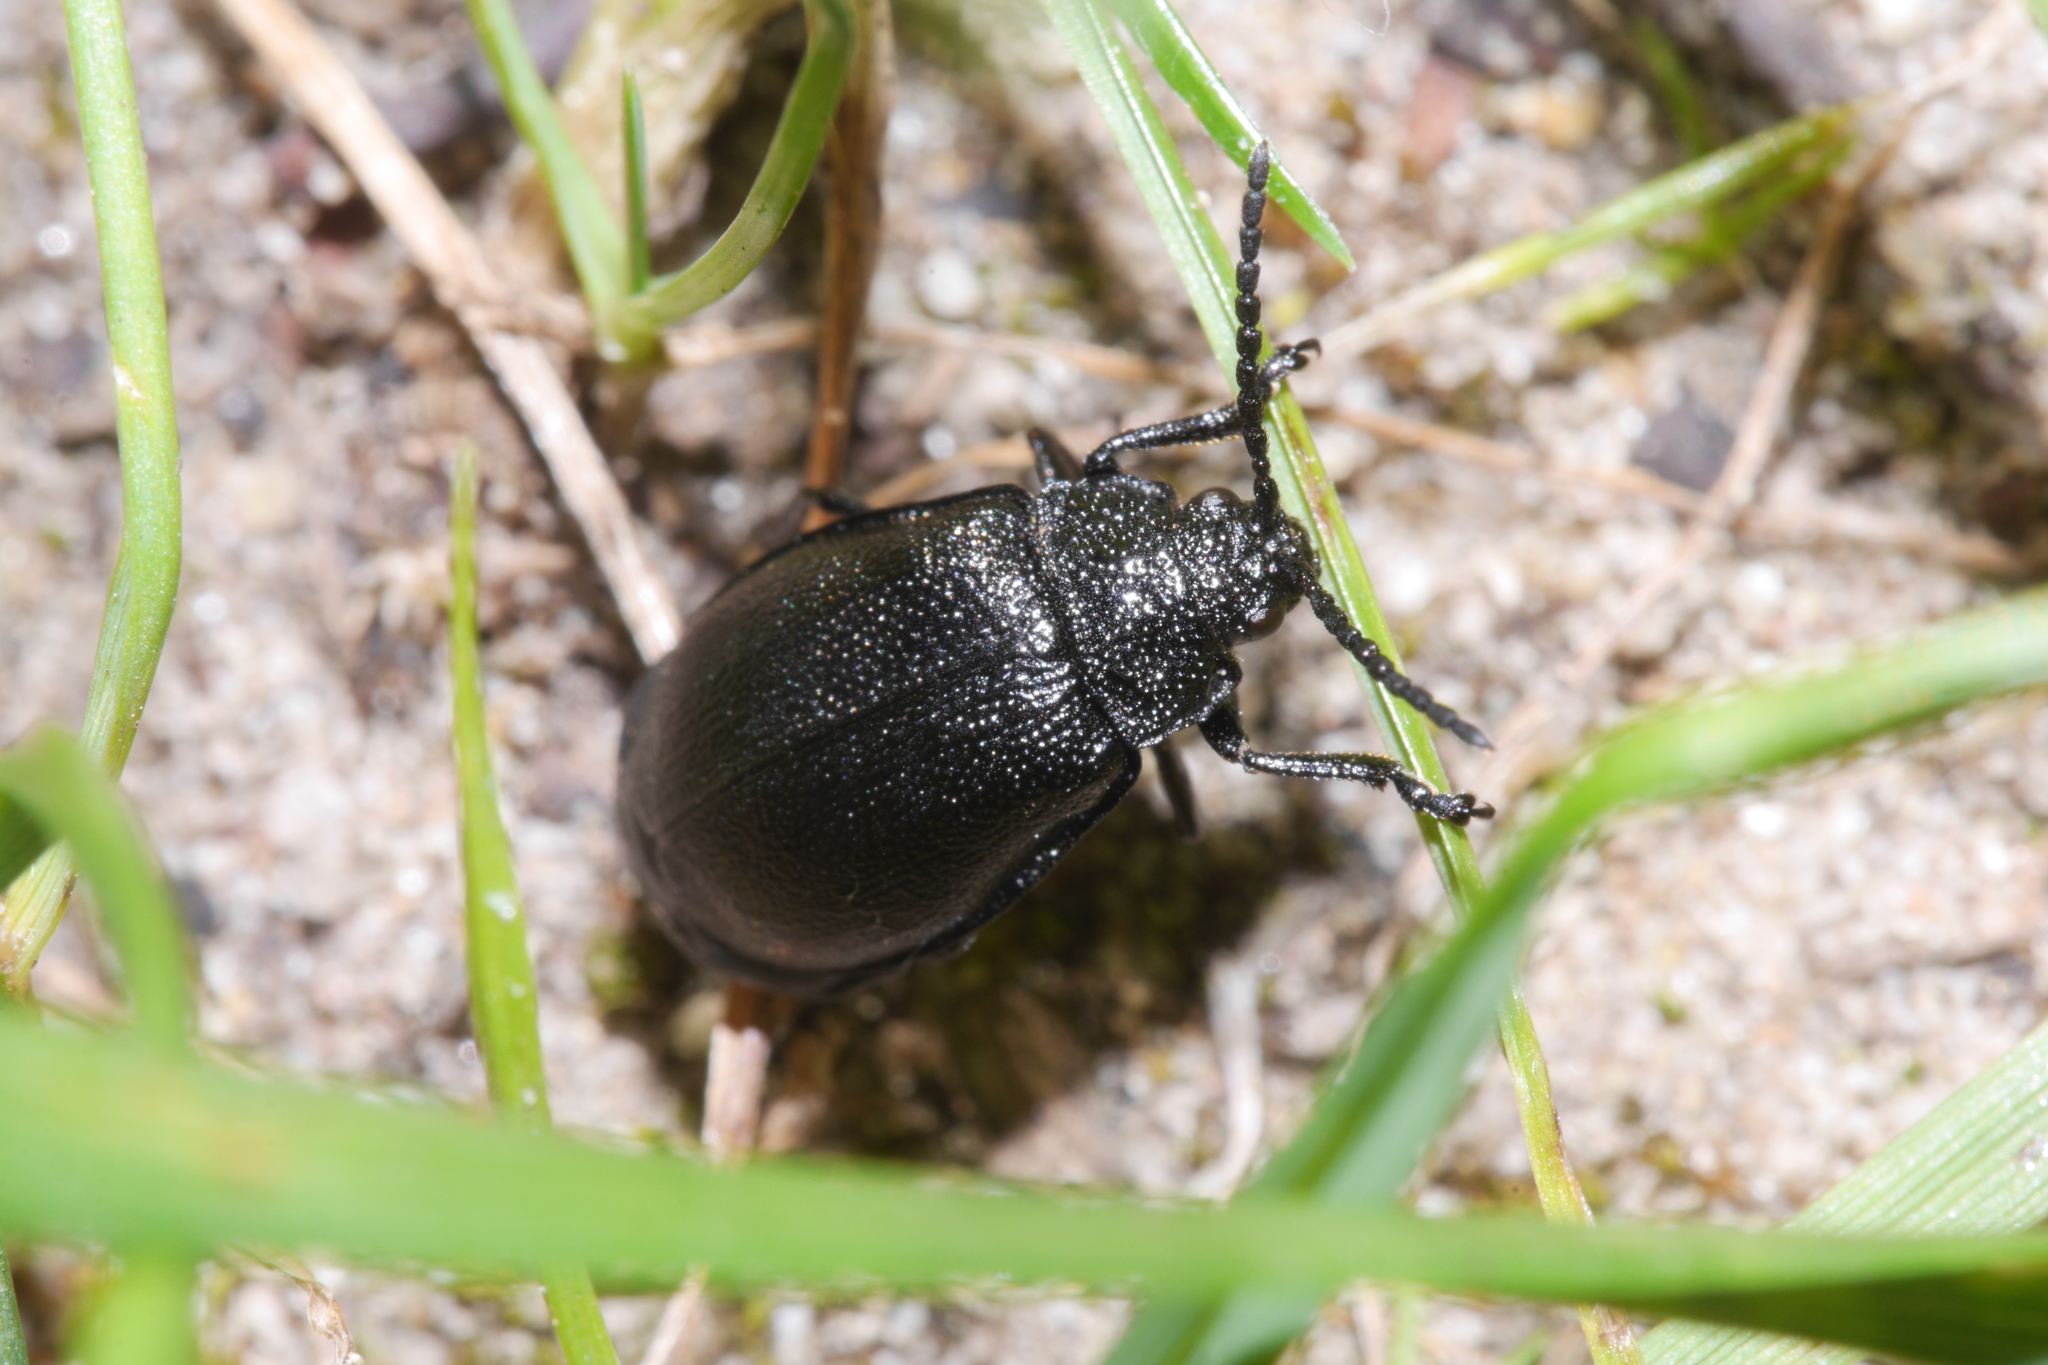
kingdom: Animalia
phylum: Arthropoda
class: Insecta
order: Coleoptera
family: Chrysomelidae
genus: Galeruca
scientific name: Galeruca tanaceti
